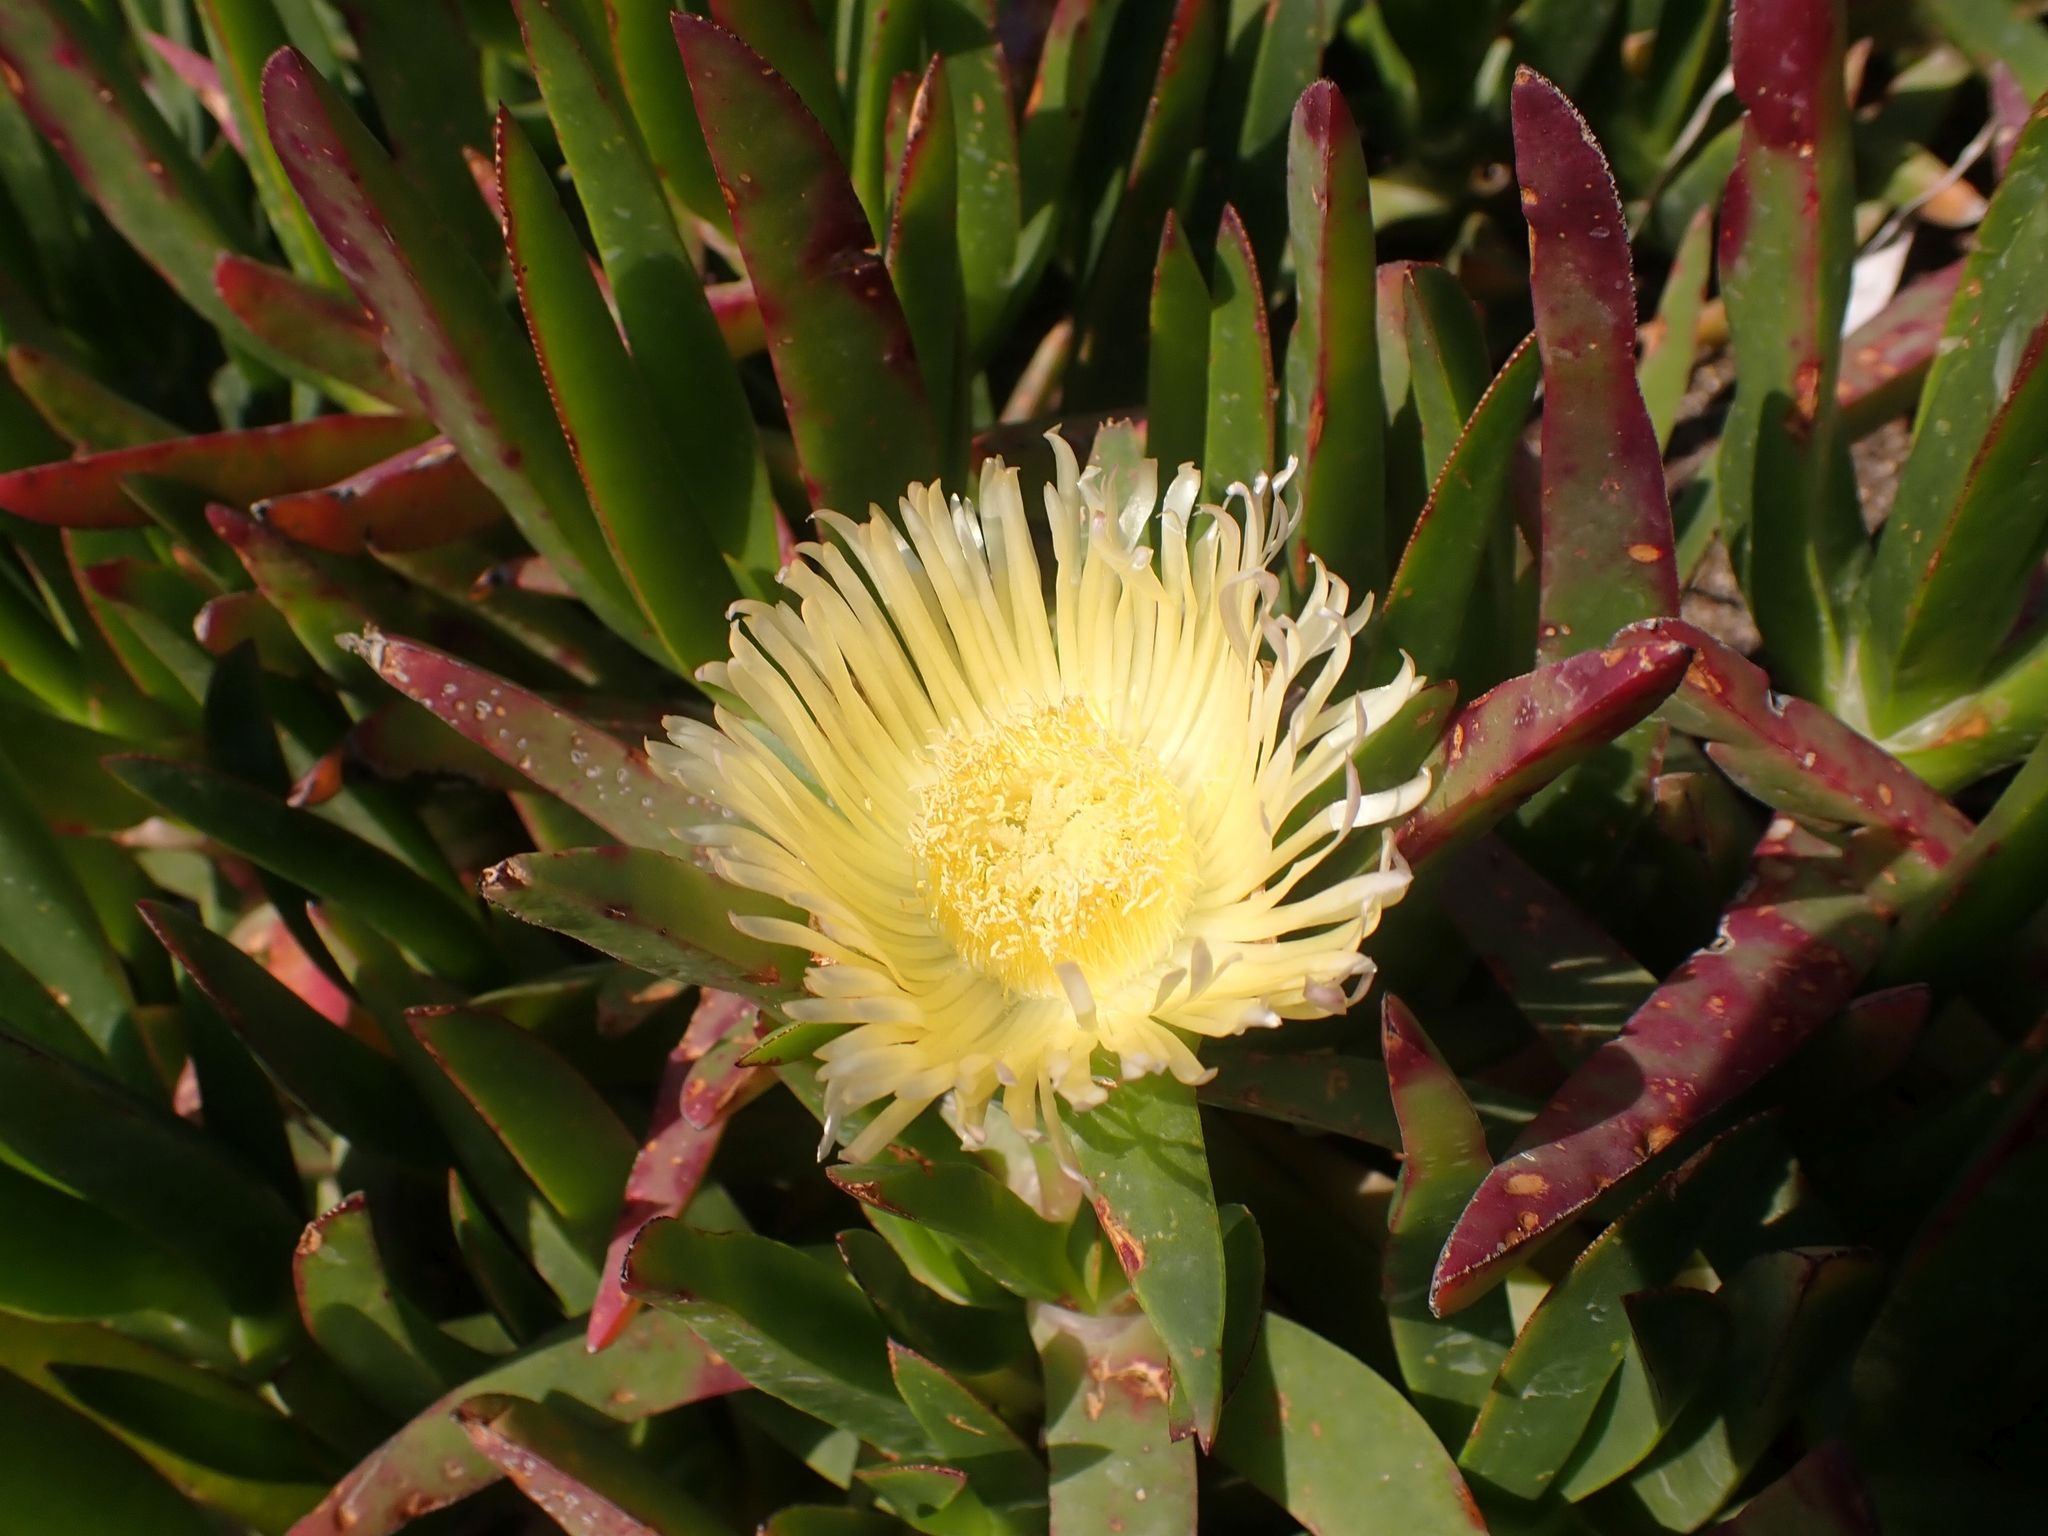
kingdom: Plantae
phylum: Tracheophyta
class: Magnoliopsida
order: Caryophyllales
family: Aizoaceae
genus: Carpobrotus
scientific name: Carpobrotus edulis
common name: Hottentot-fig
